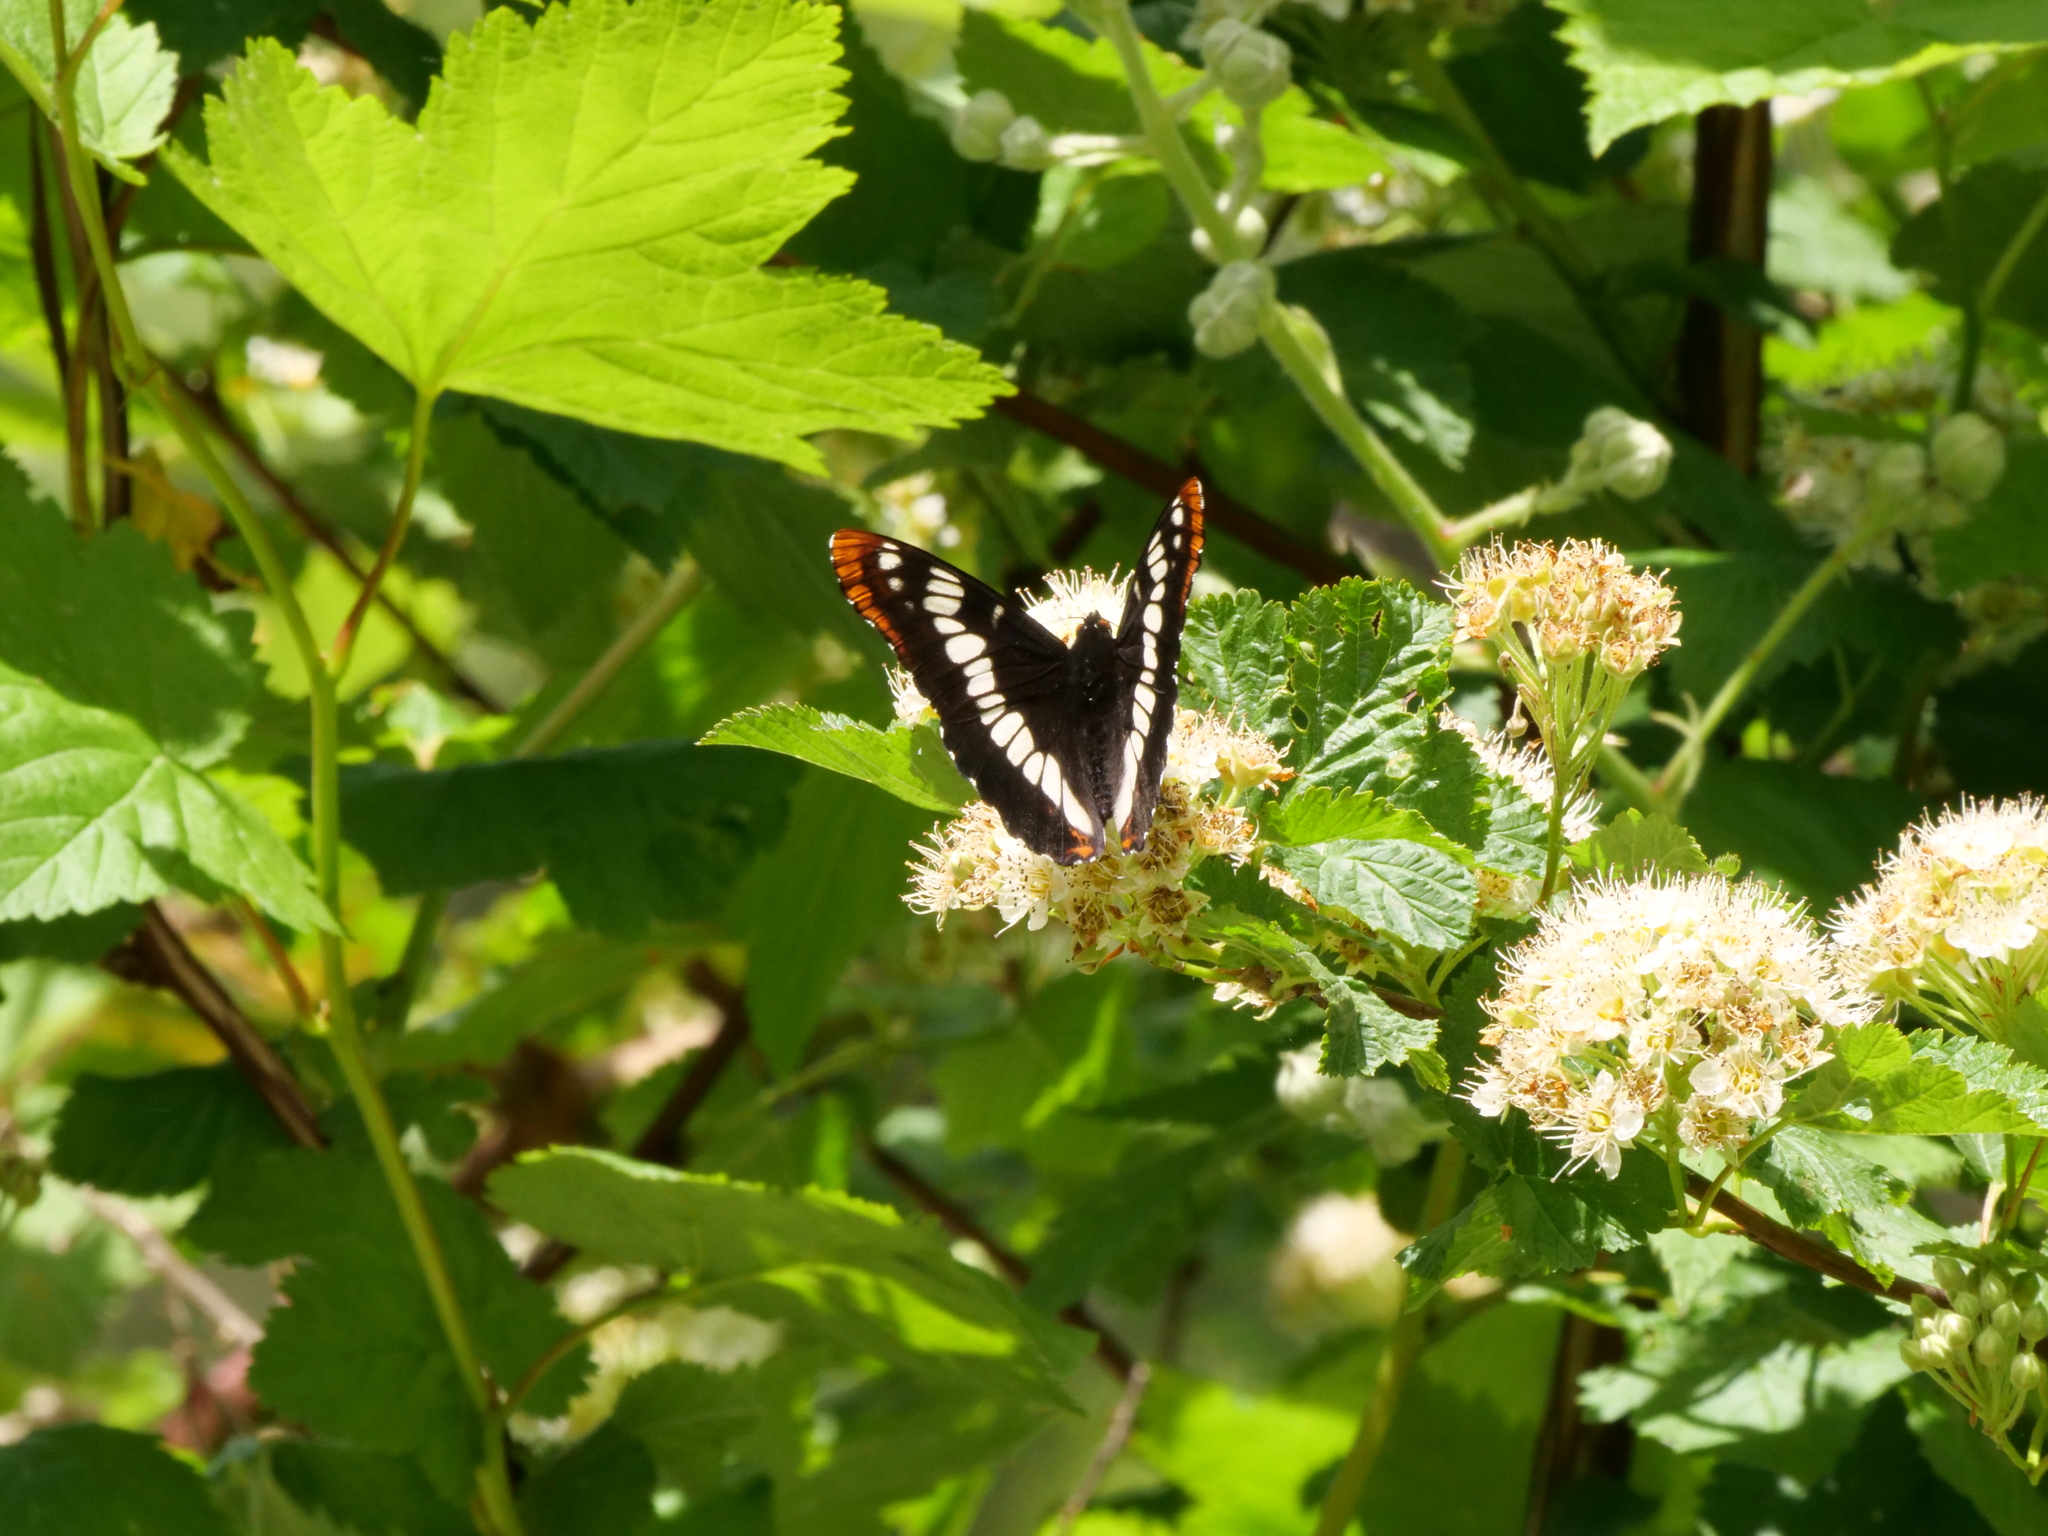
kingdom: Animalia
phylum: Arthropoda
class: Insecta
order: Lepidoptera
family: Nymphalidae
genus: Limenitis
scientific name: Limenitis lorquini
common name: Lorquin's admiral
